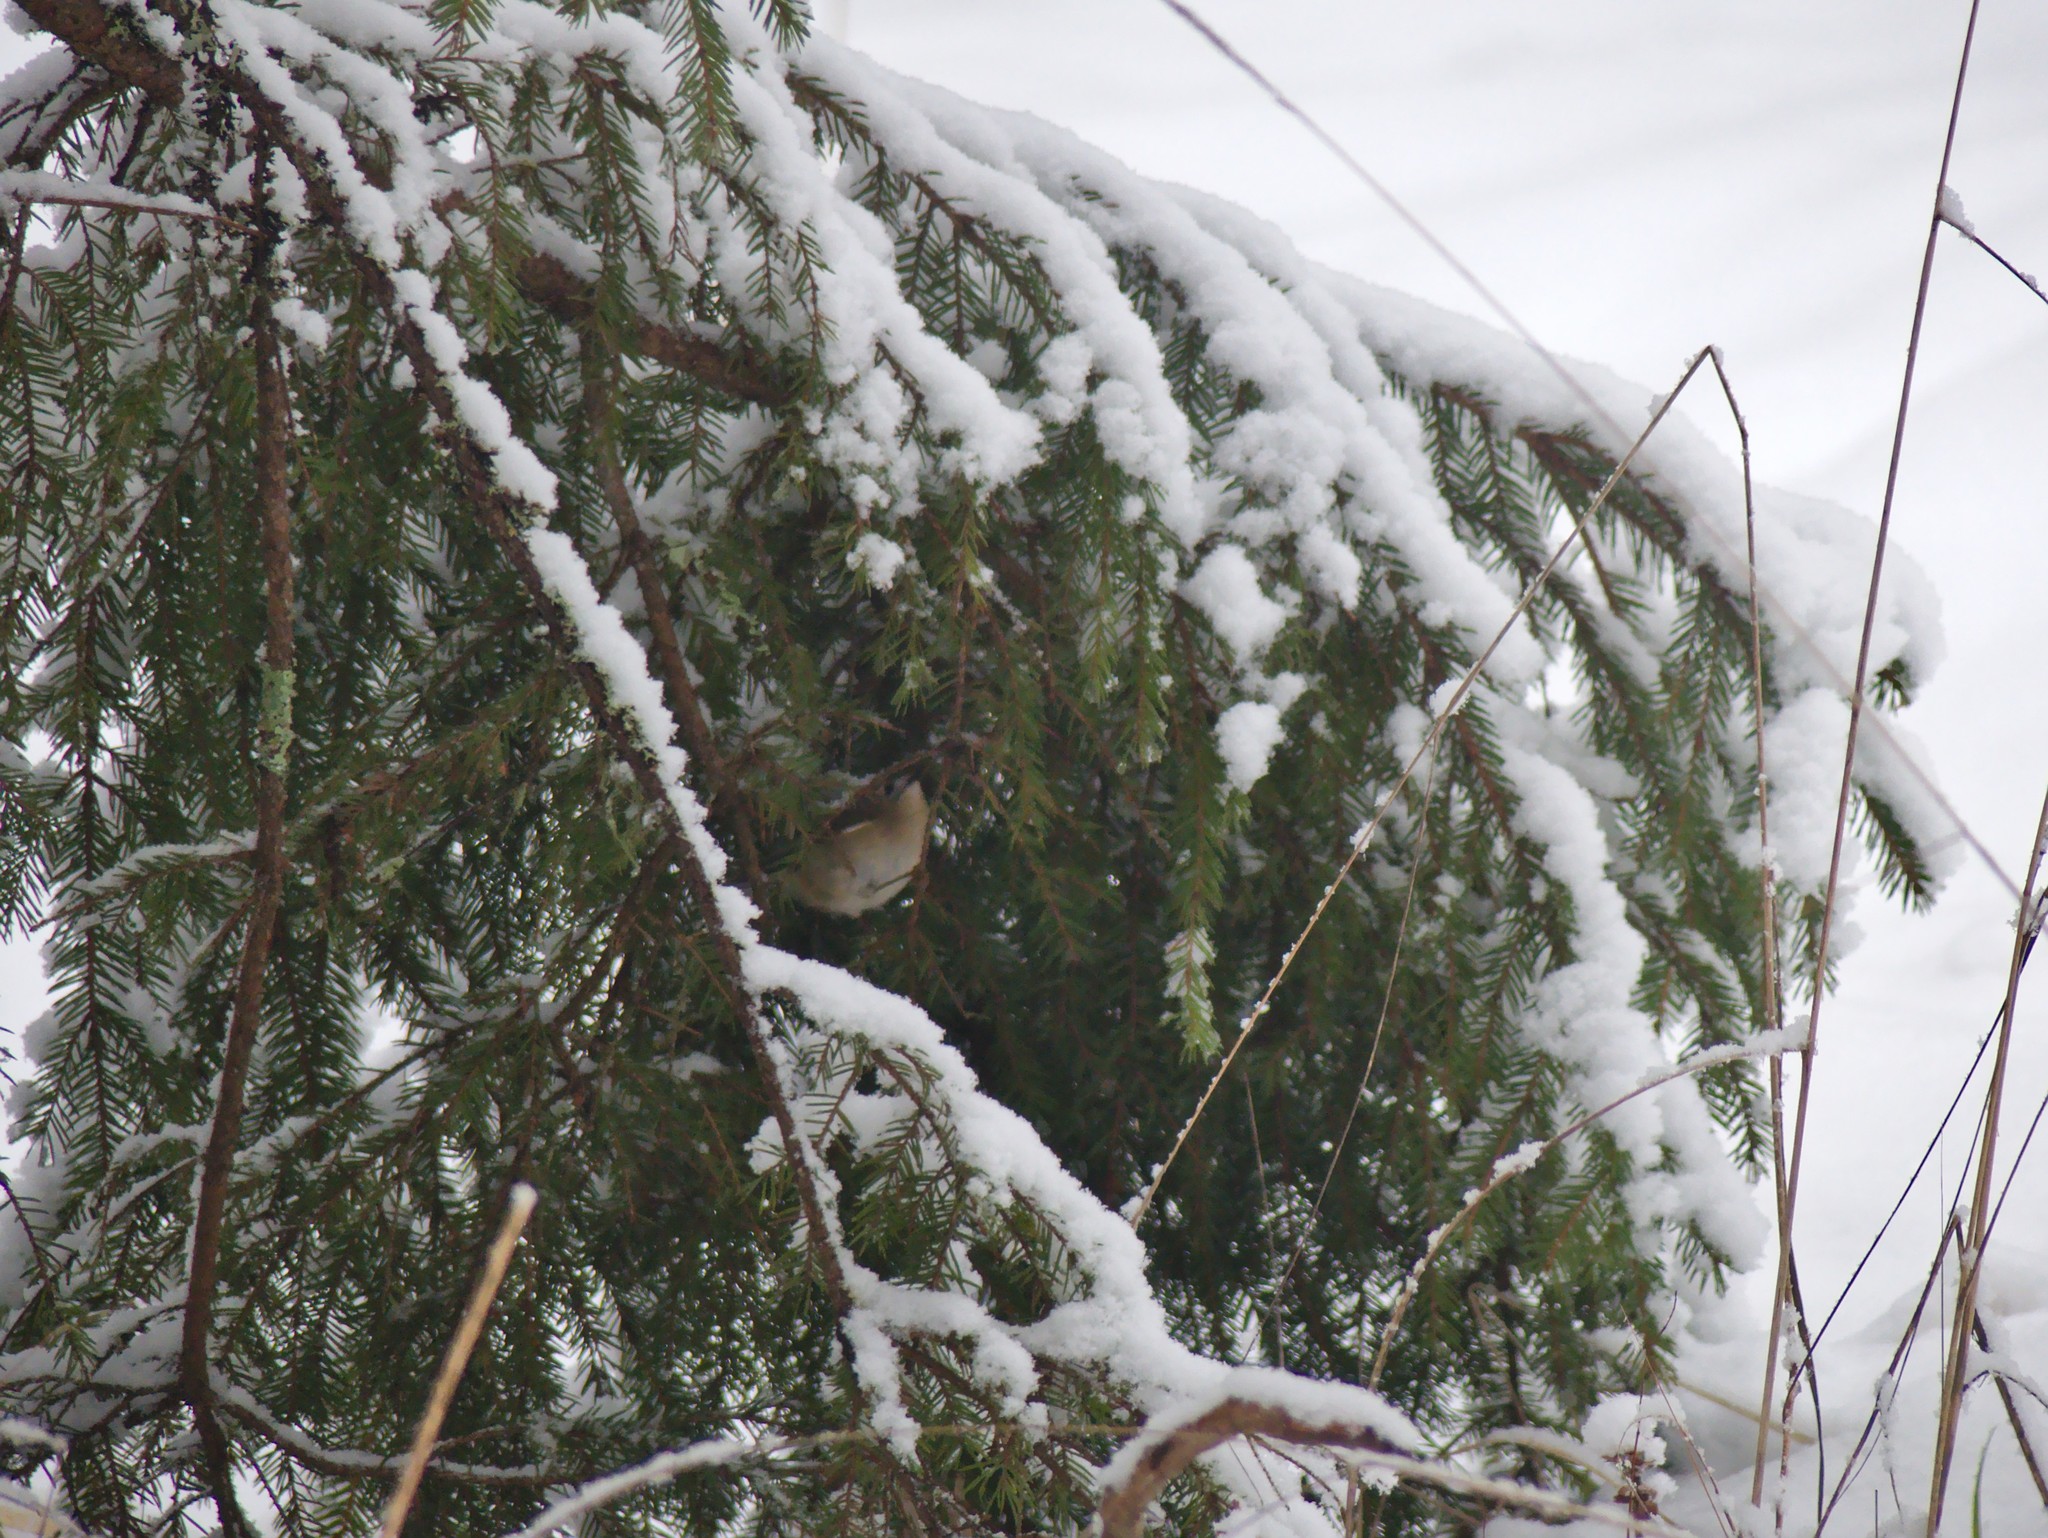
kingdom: Animalia
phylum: Chordata
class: Aves
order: Passeriformes
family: Regulidae
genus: Regulus
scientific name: Regulus regulus
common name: Goldcrest
